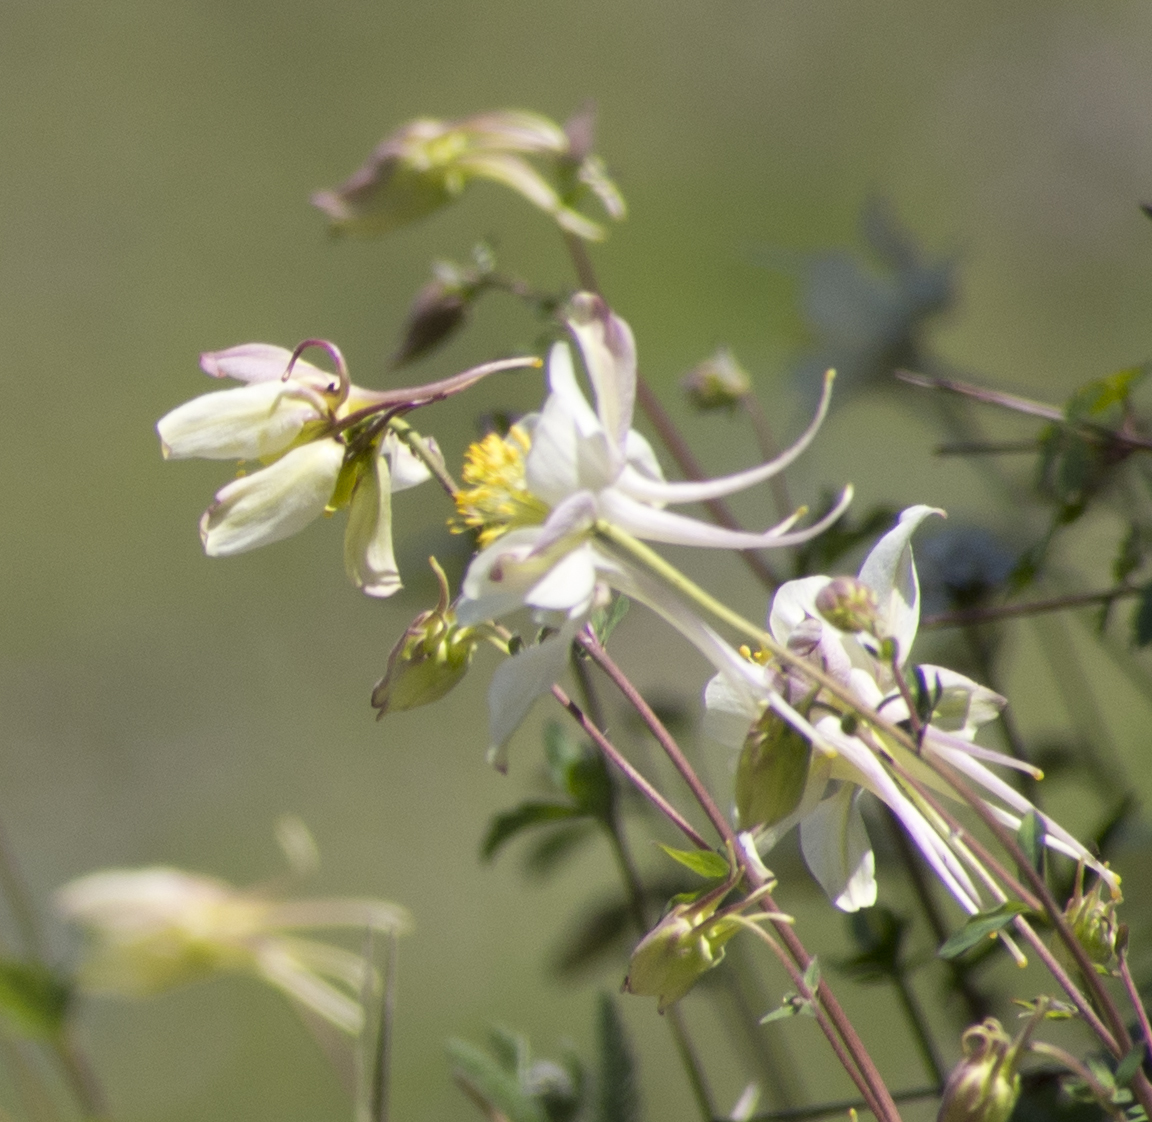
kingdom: Plantae
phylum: Tracheophyta
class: Magnoliopsida
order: Ranunculales
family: Ranunculaceae
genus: Aquilegia
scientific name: Aquilegia flavescens
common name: Yellow columbine
